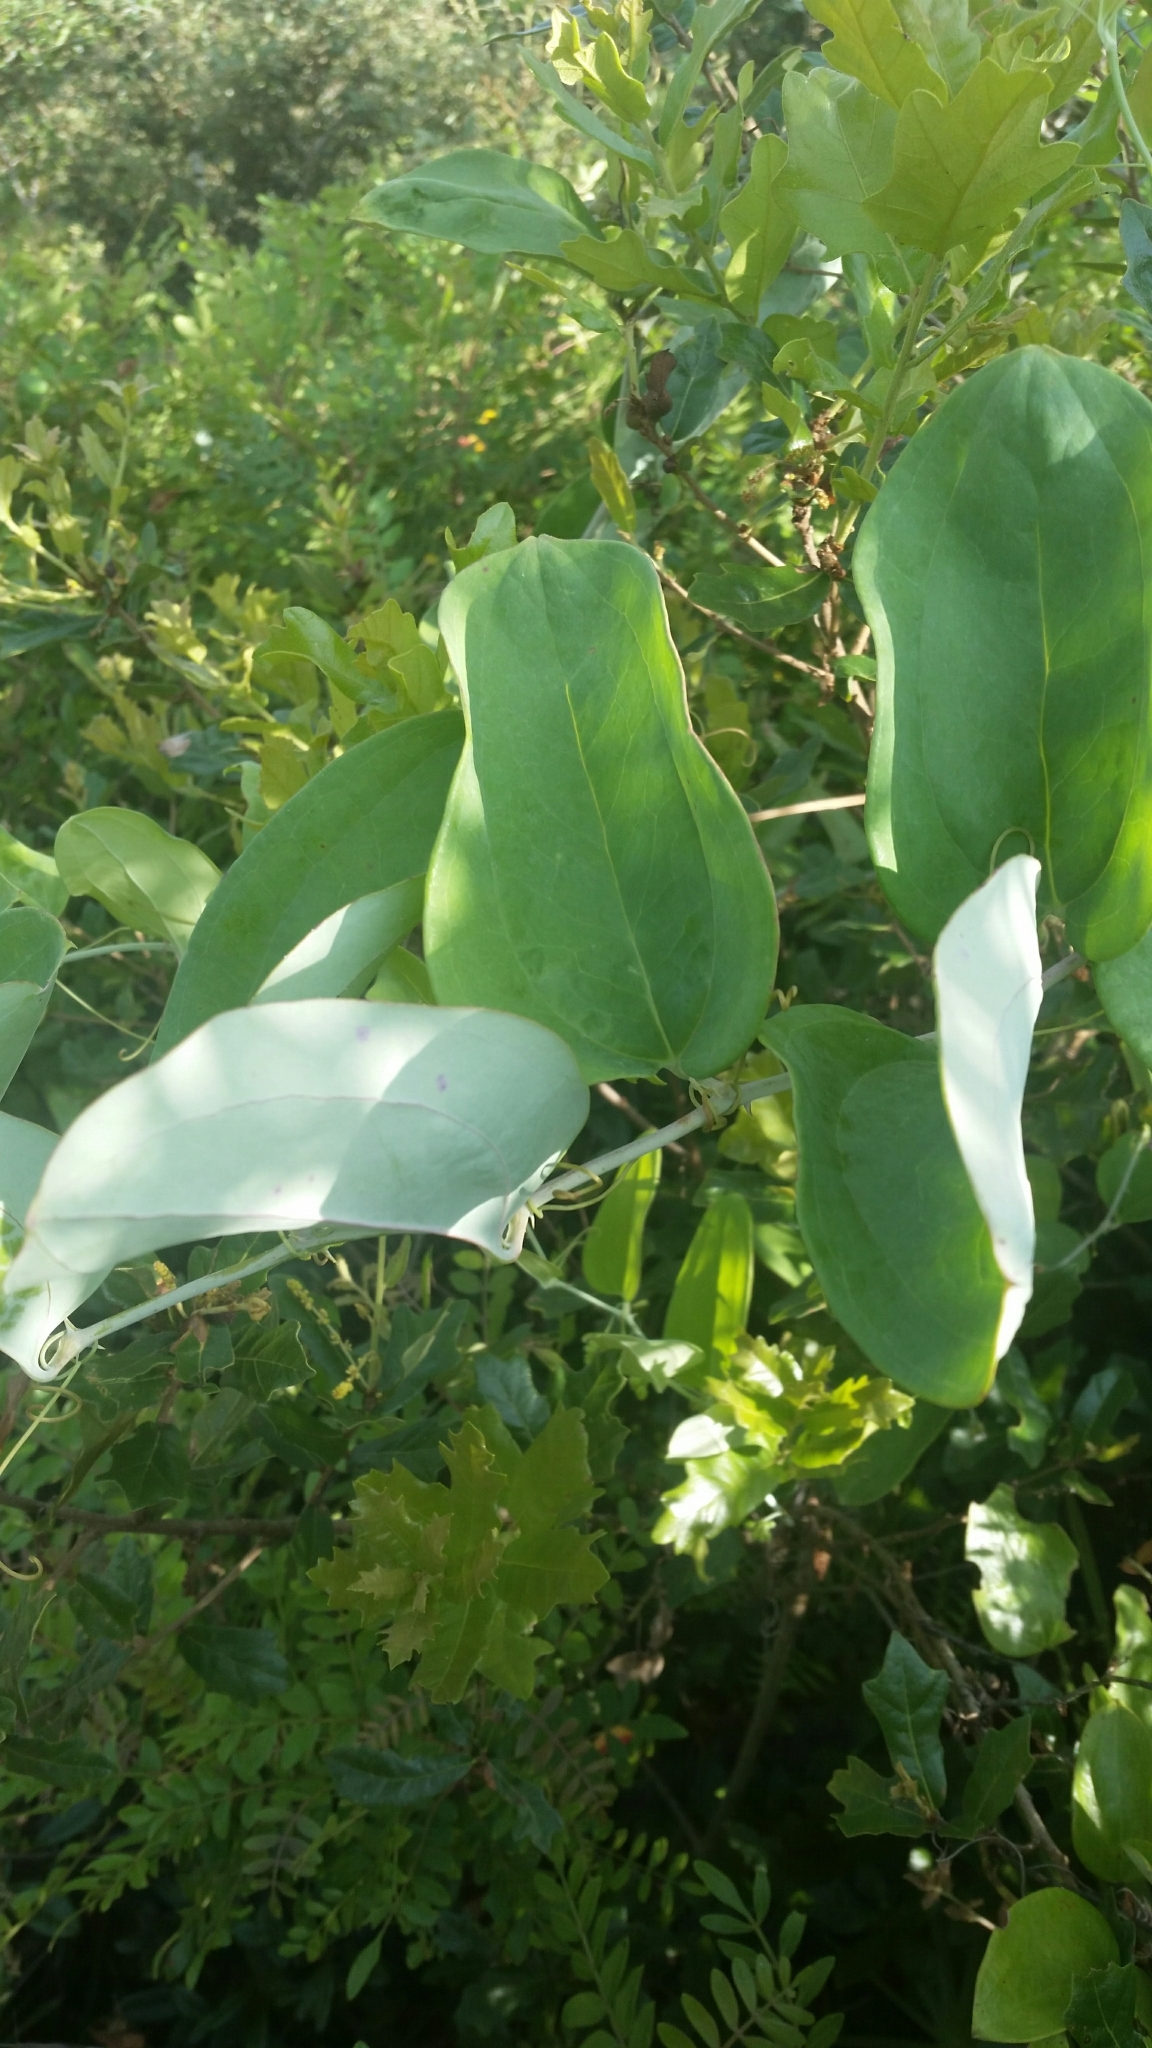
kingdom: Plantae
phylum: Tracheophyta
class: Liliopsida
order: Liliales
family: Smilacaceae
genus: Smilax
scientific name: Smilax glauca
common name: Cat greenbrier
